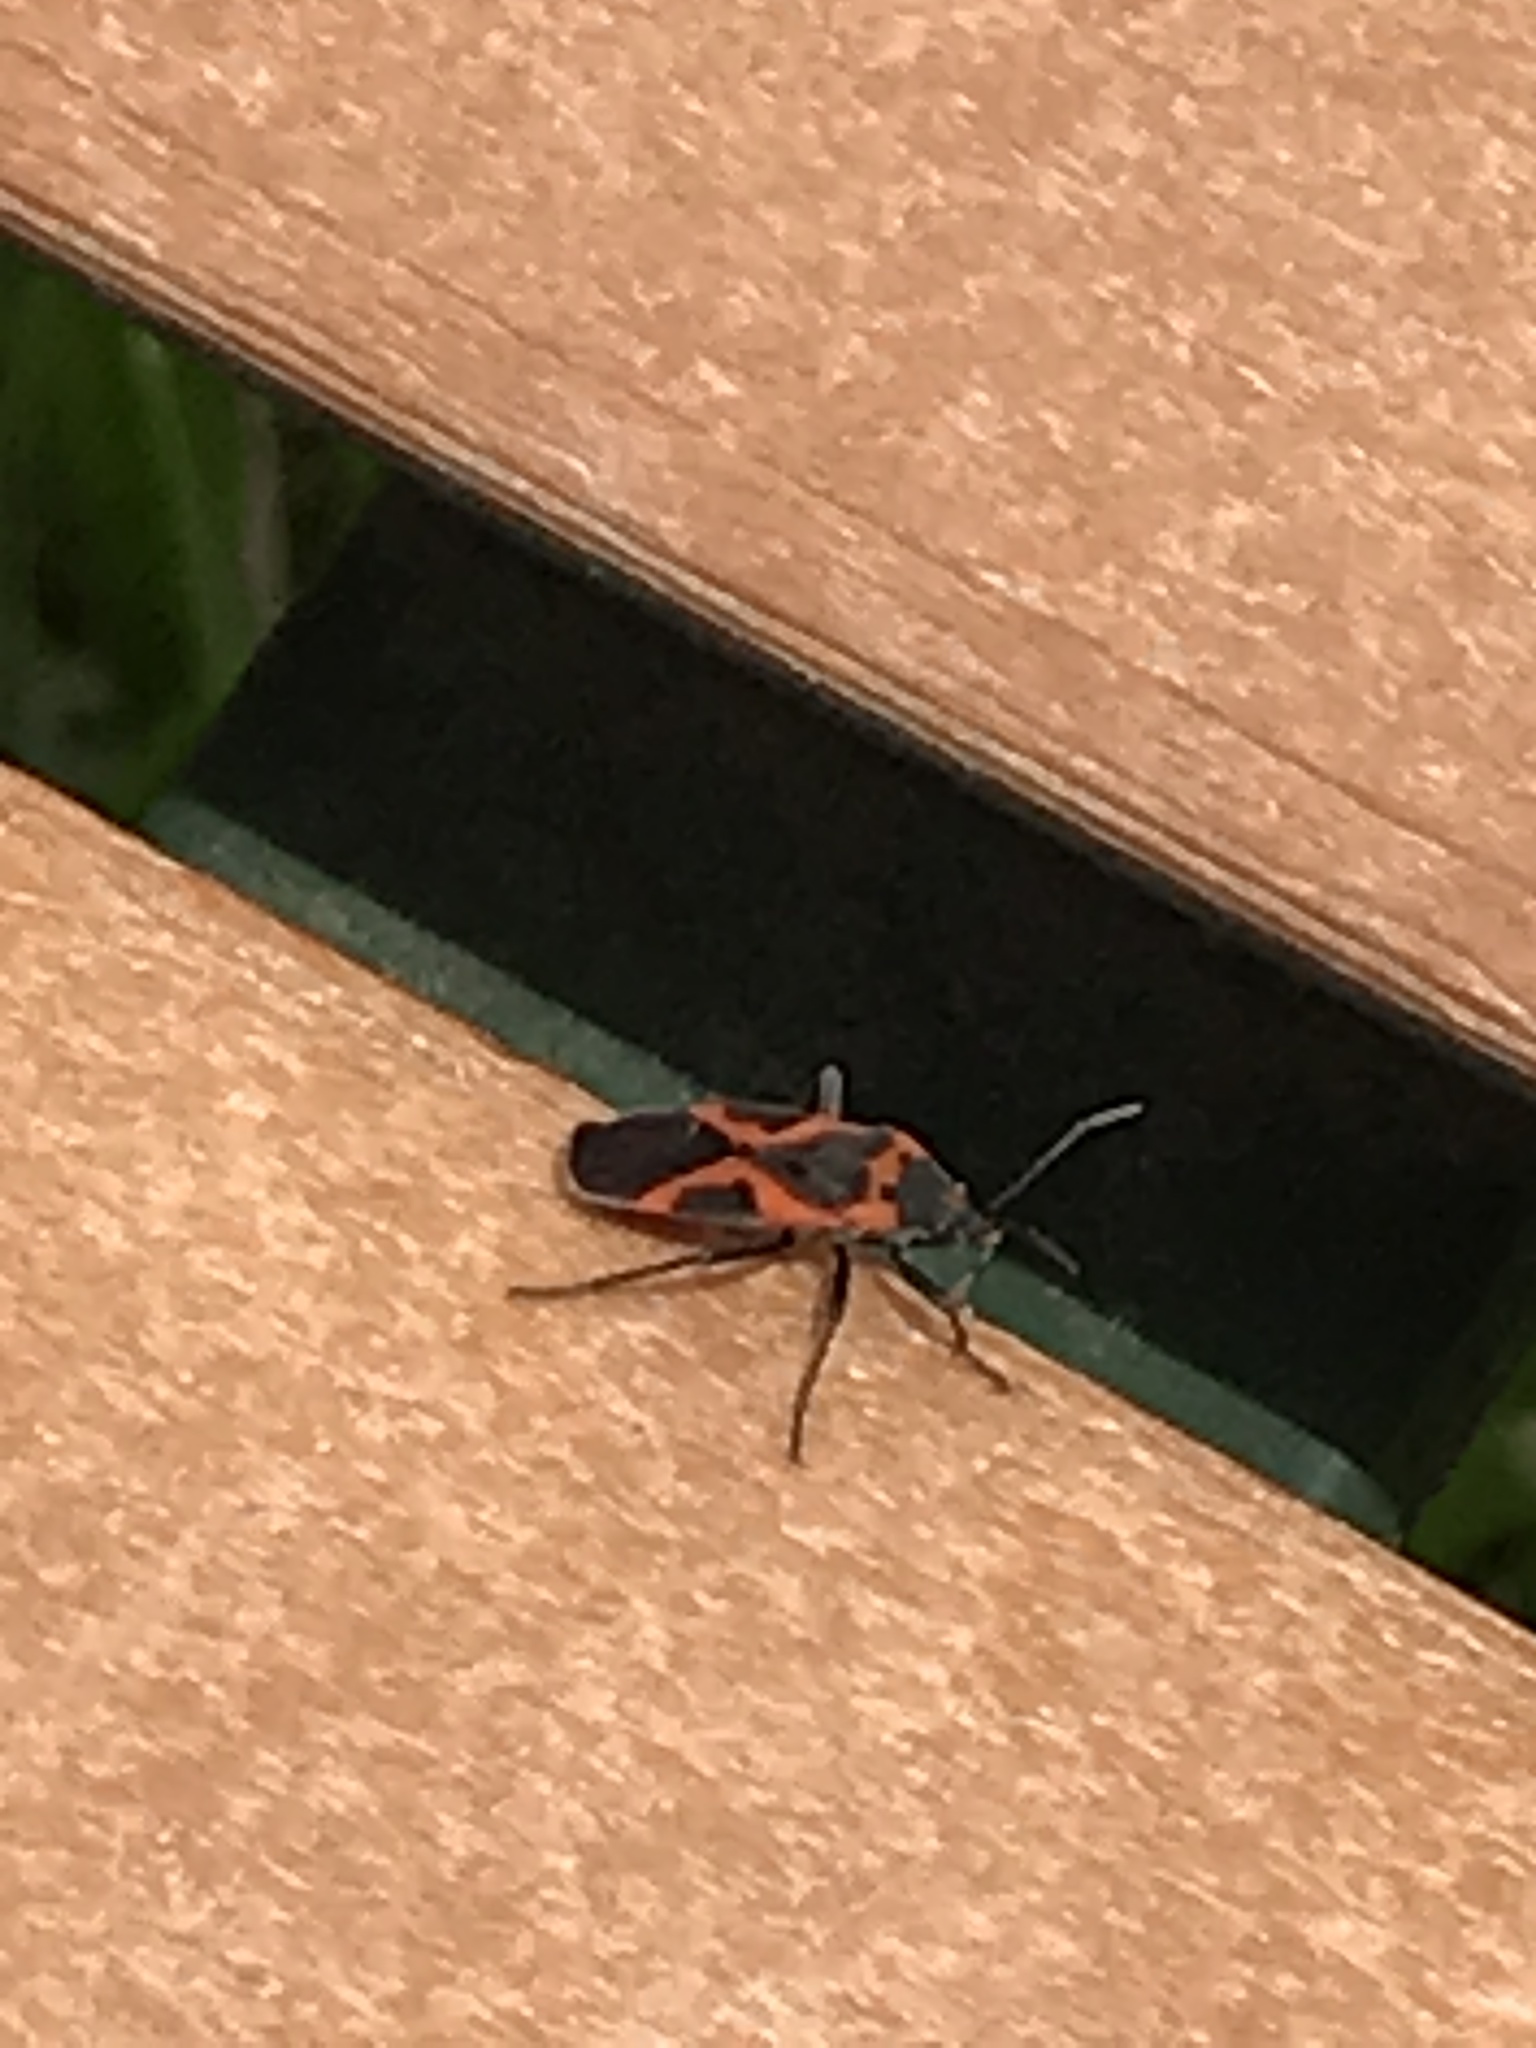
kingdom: Animalia
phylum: Arthropoda
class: Insecta
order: Hemiptera
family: Lygaeidae
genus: Lygaeus
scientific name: Lygaeus kalmii
